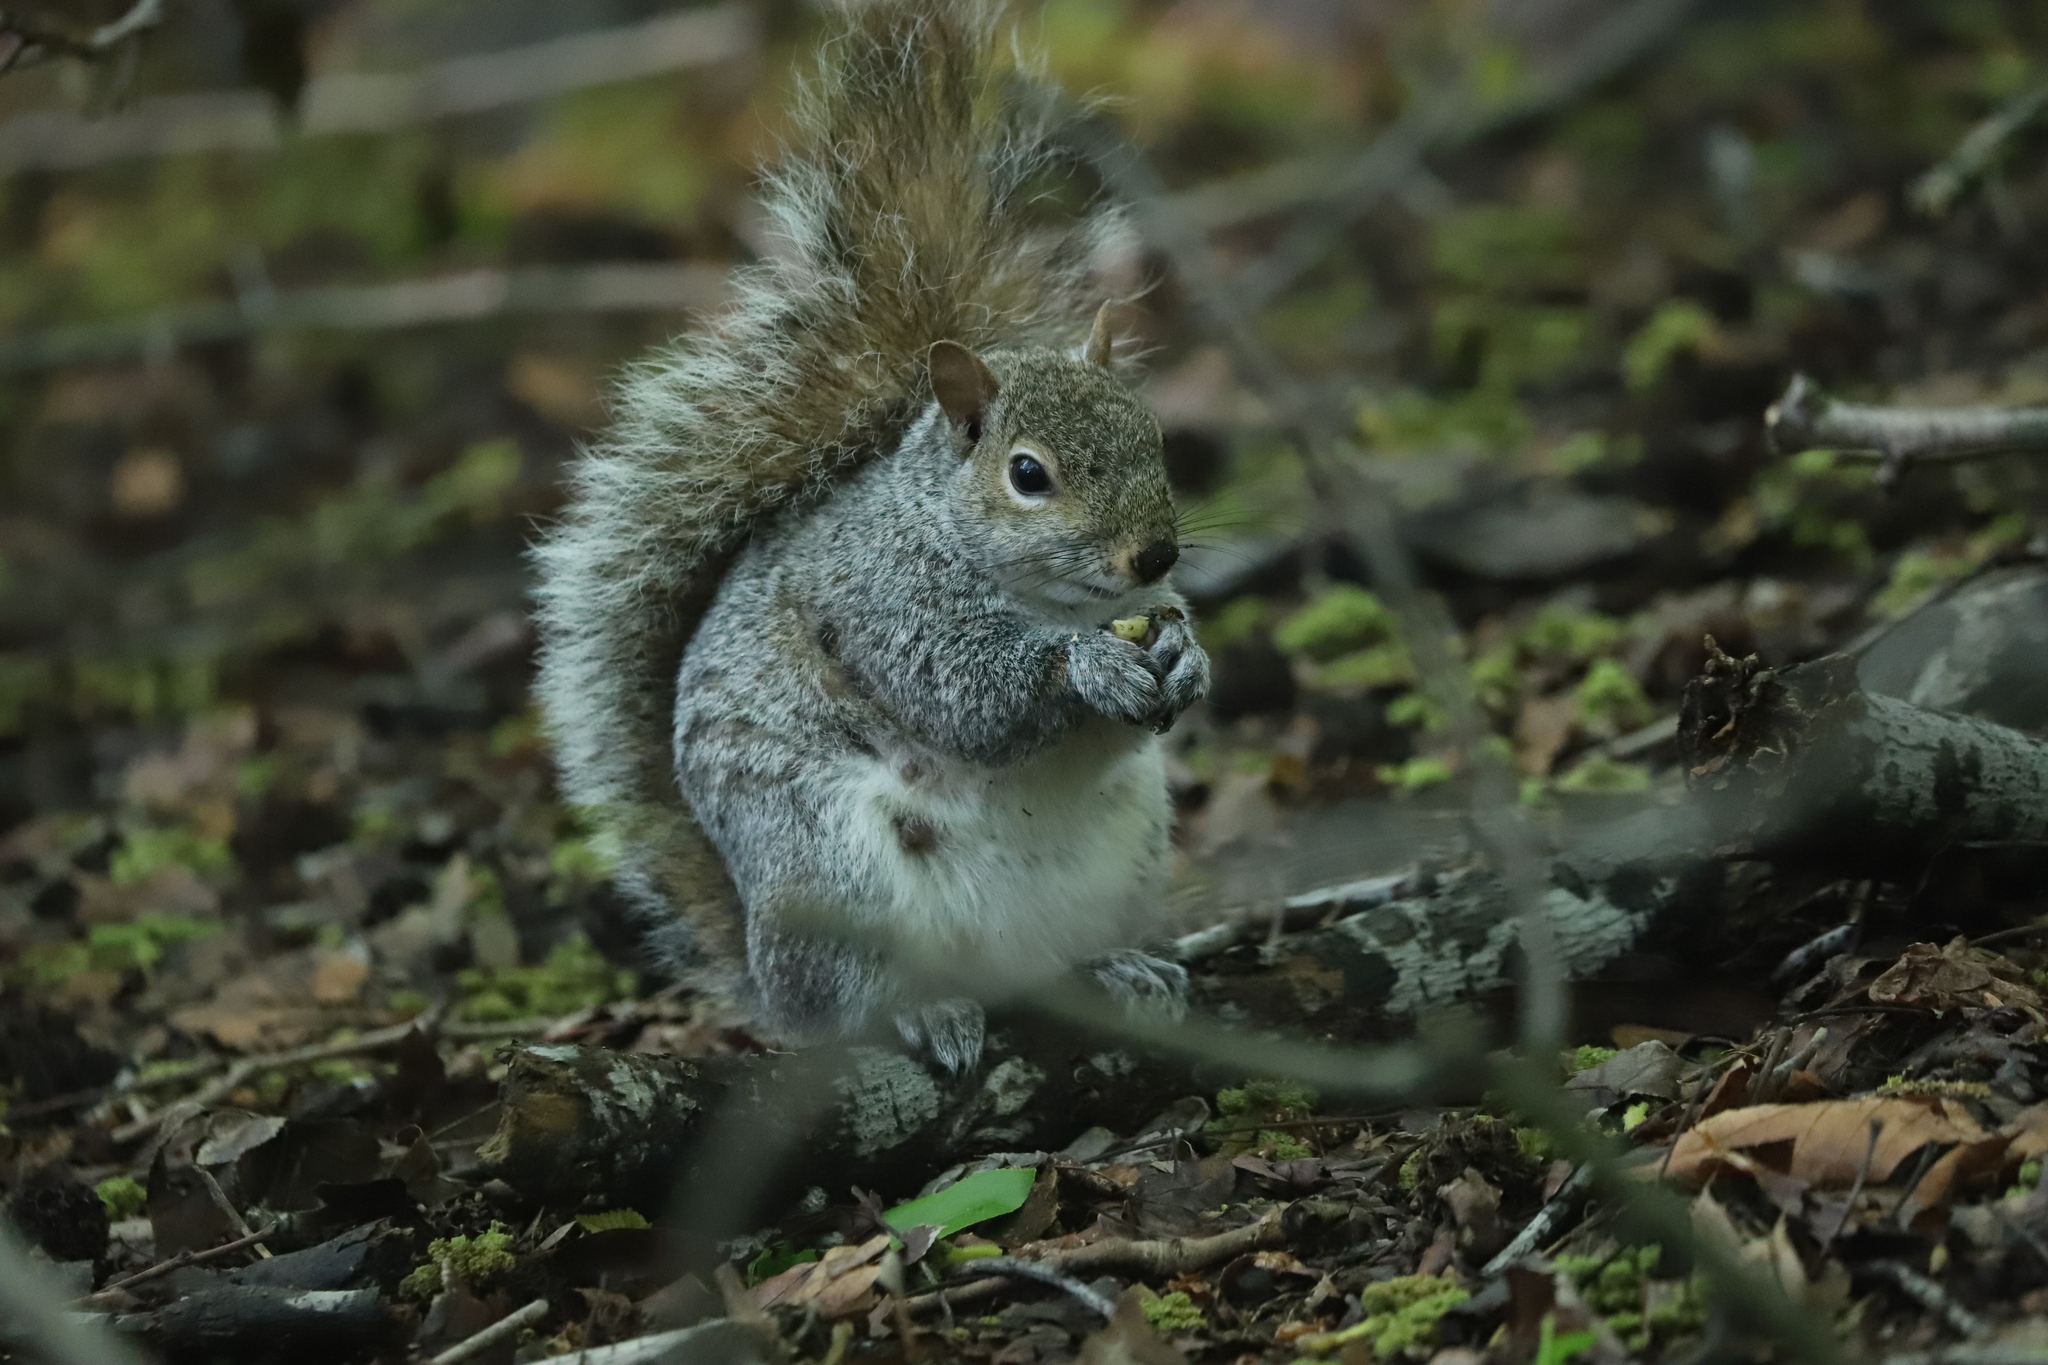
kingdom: Animalia
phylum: Chordata
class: Mammalia
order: Rodentia
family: Sciuridae
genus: Sciurus
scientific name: Sciurus carolinensis
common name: Eastern gray squirrel
